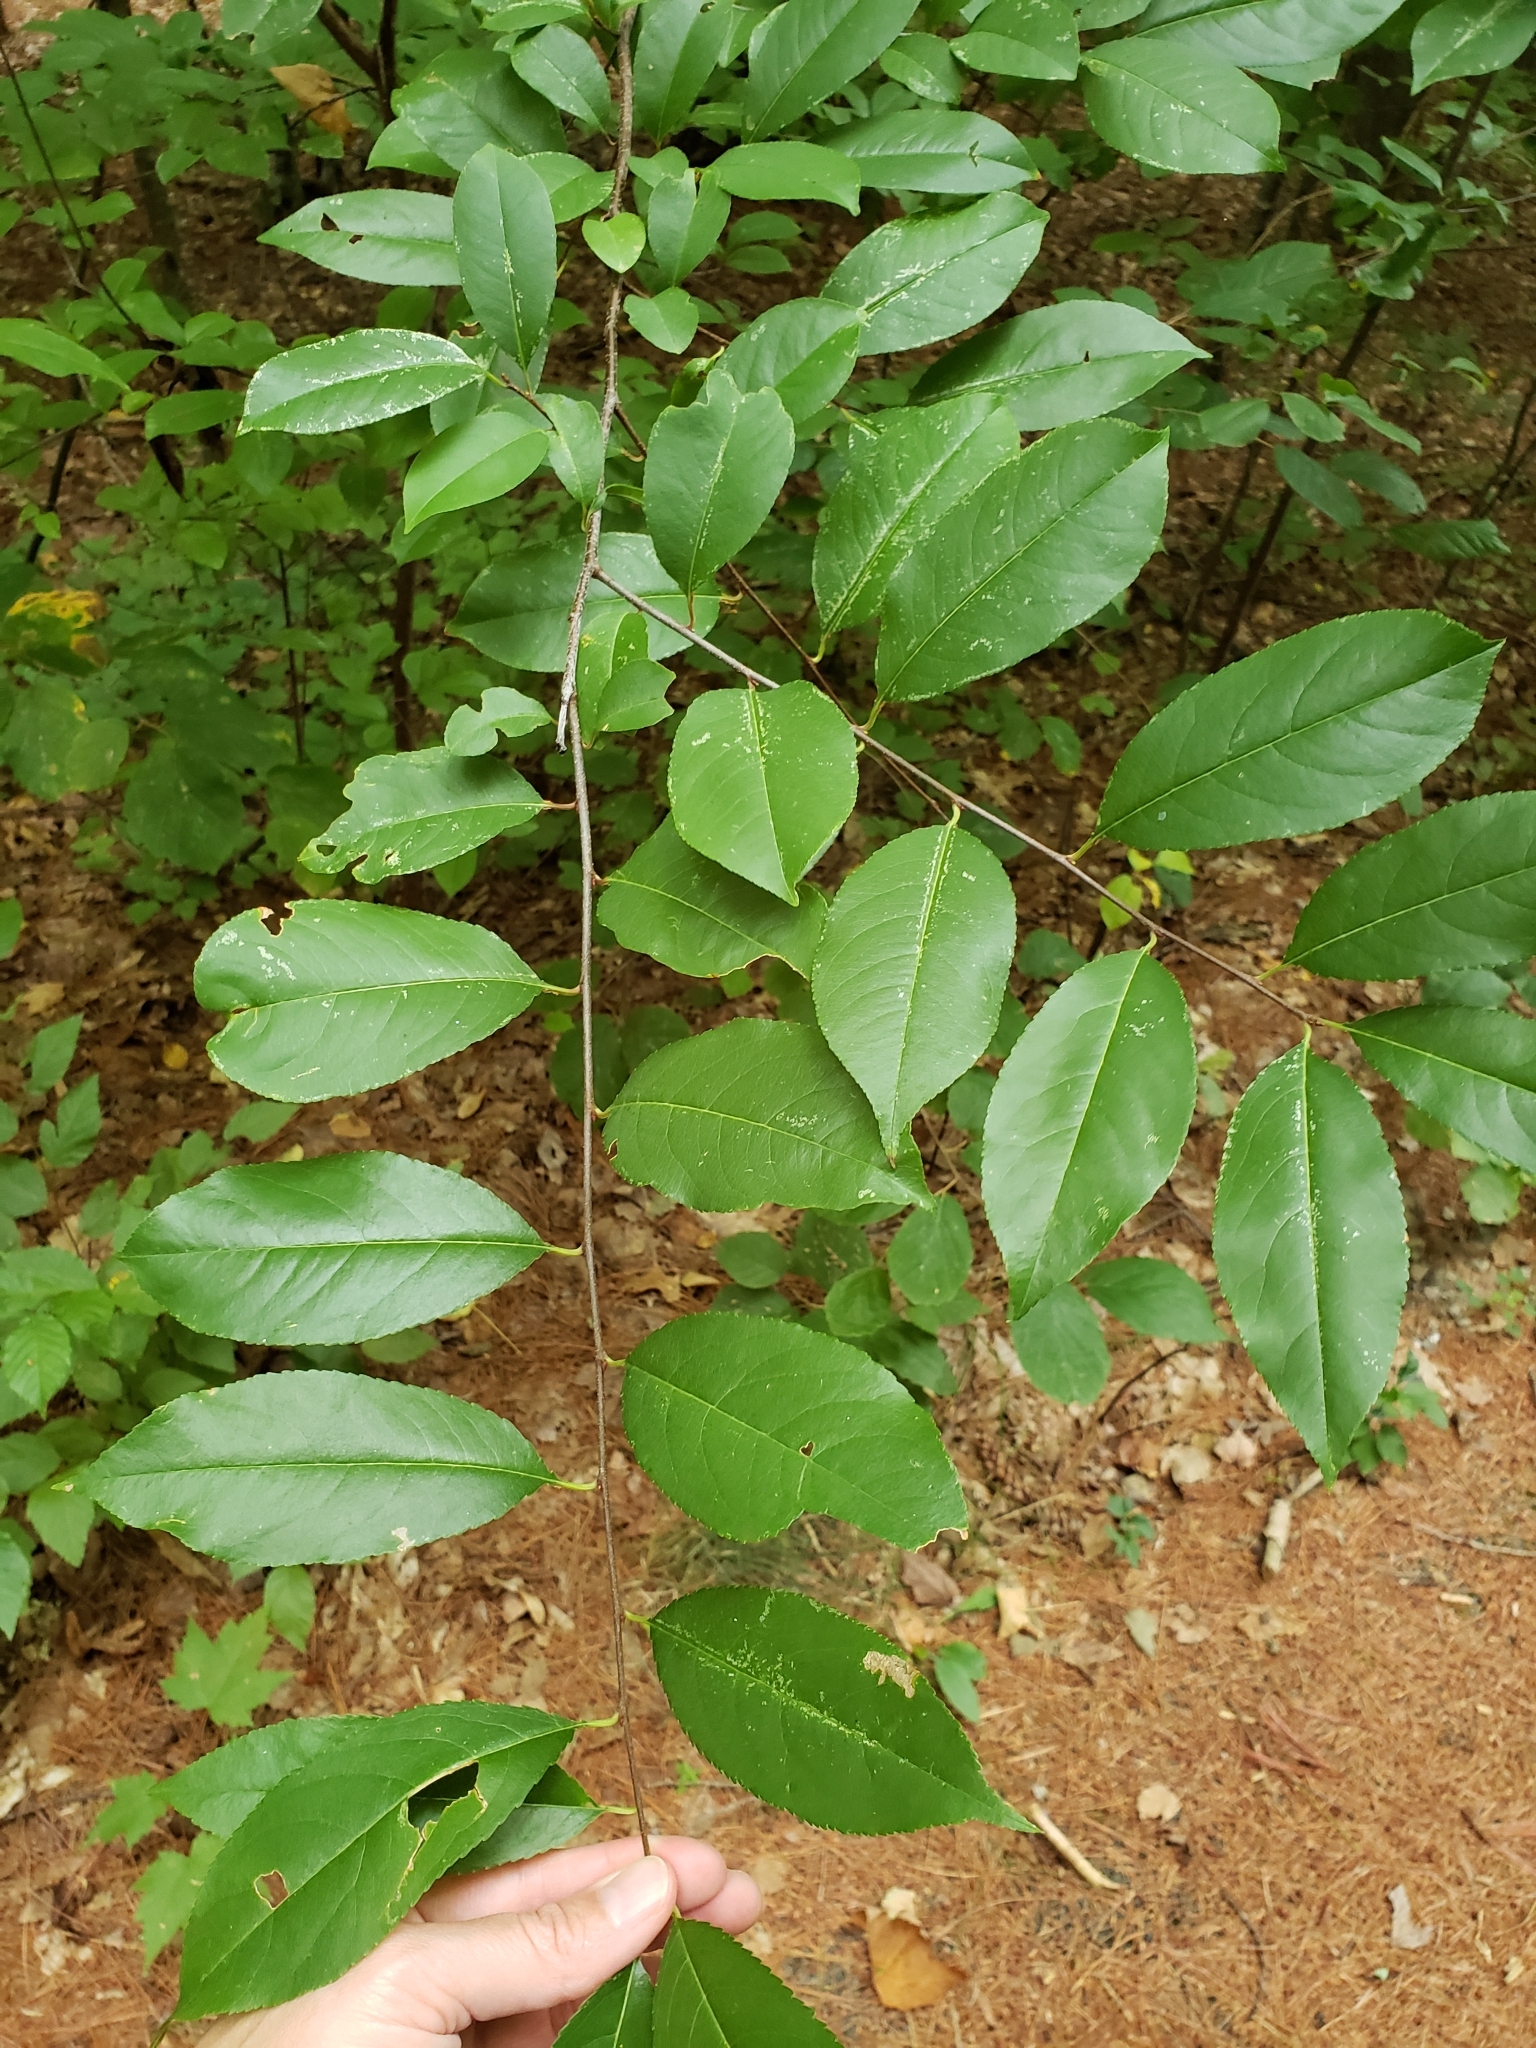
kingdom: Plantae
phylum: Tracheophyta
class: Magnoliopsida
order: Rosales
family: Rosaceae
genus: Prunus
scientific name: Prunus serotina
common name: Black cherry
